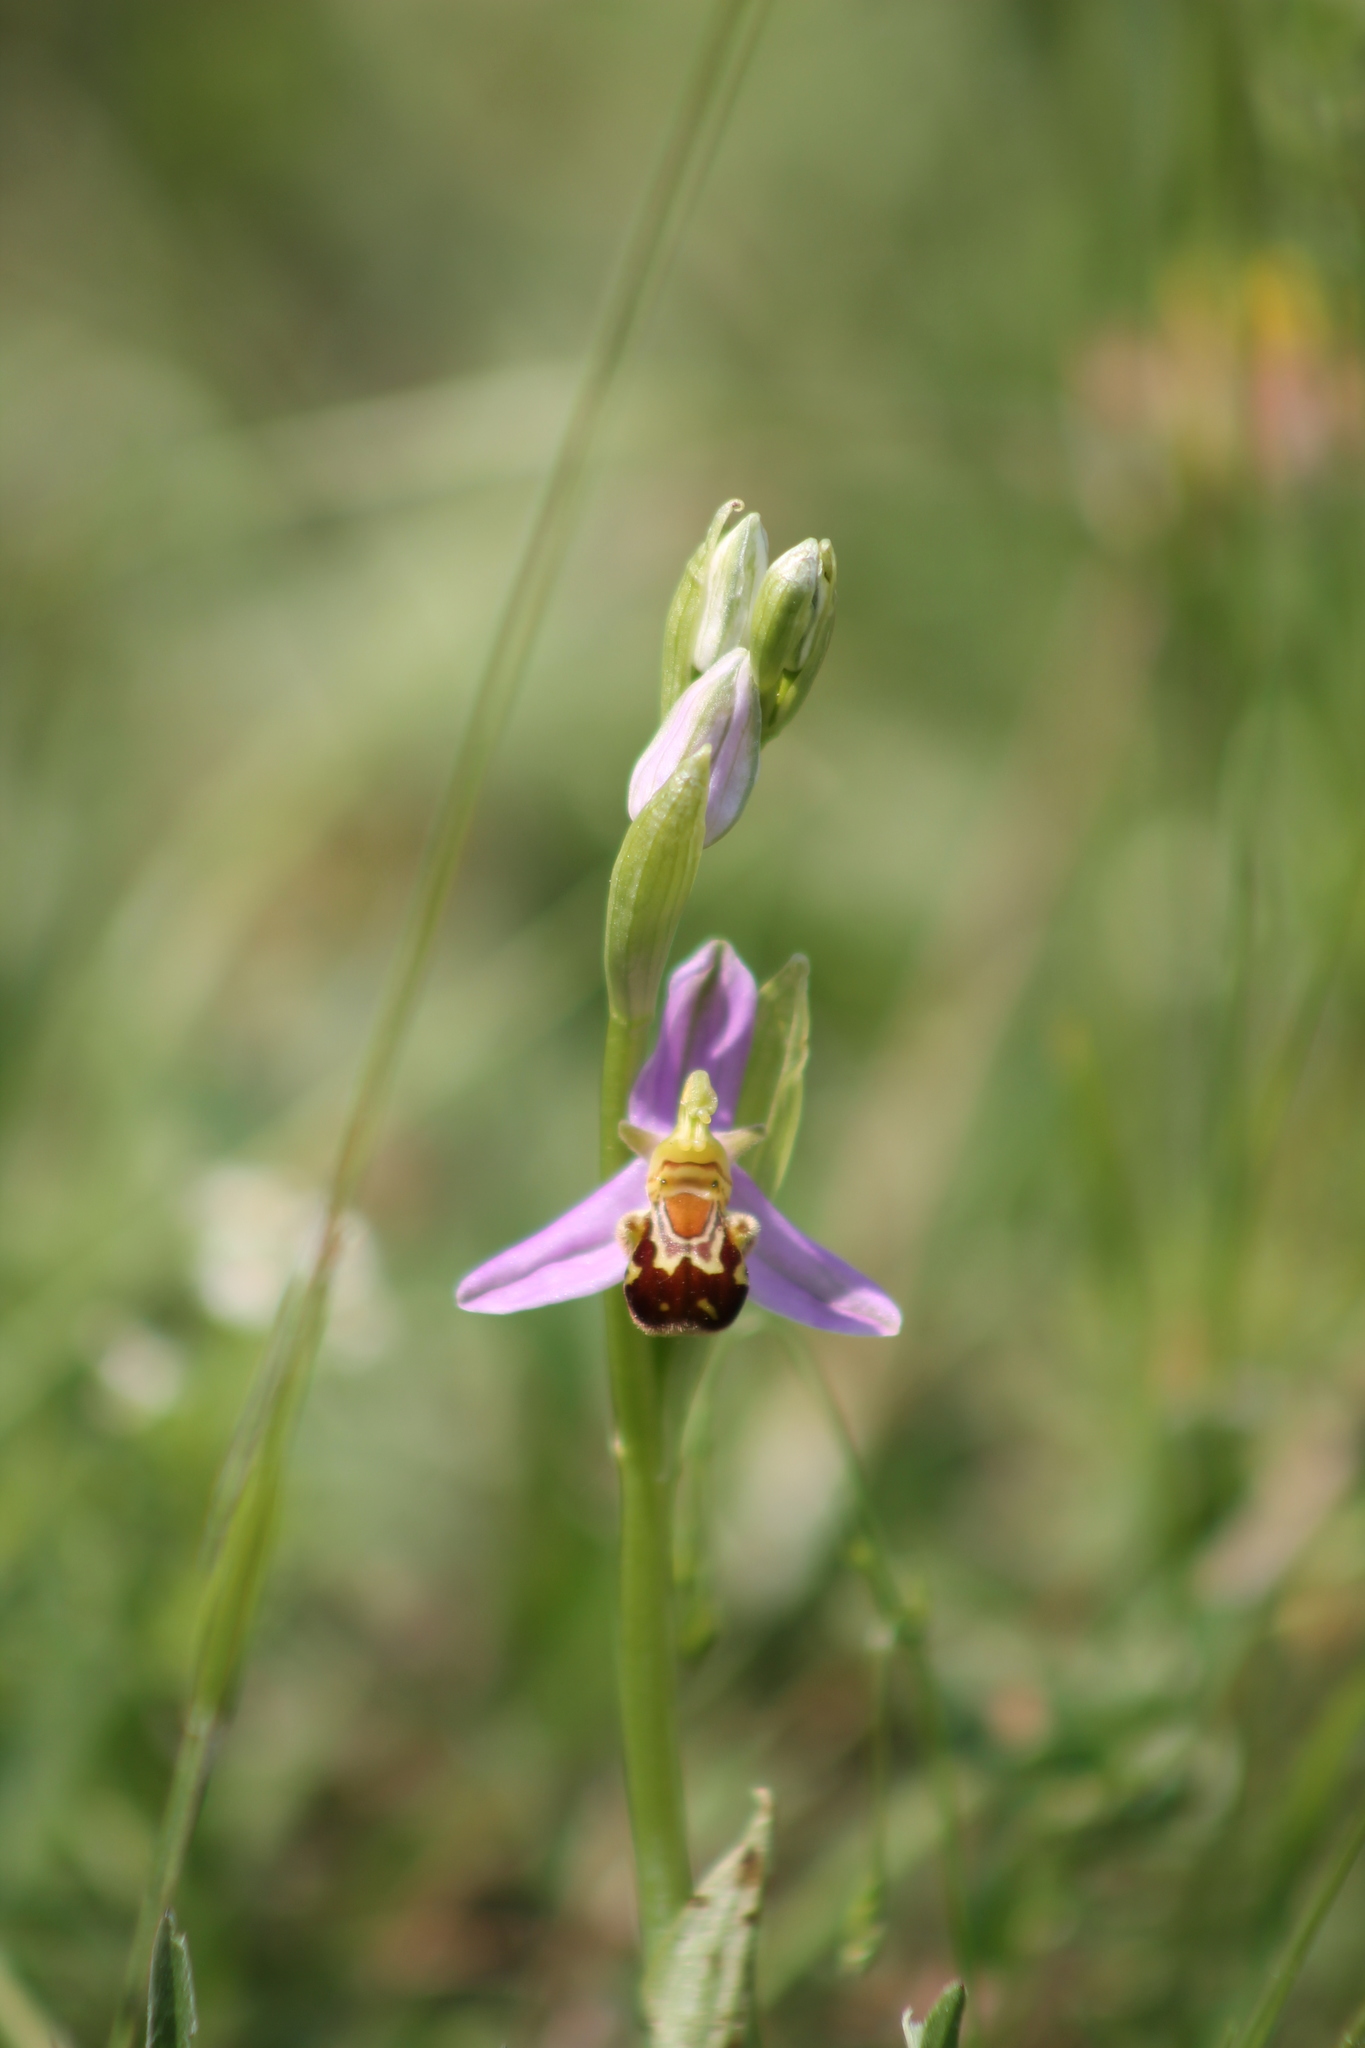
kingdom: Plantae
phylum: Tracheophyta
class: Liliopsida
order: Asparagales
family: Orchidaceae
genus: Ophrys
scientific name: Ophrys apifera
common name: Bee orchid
